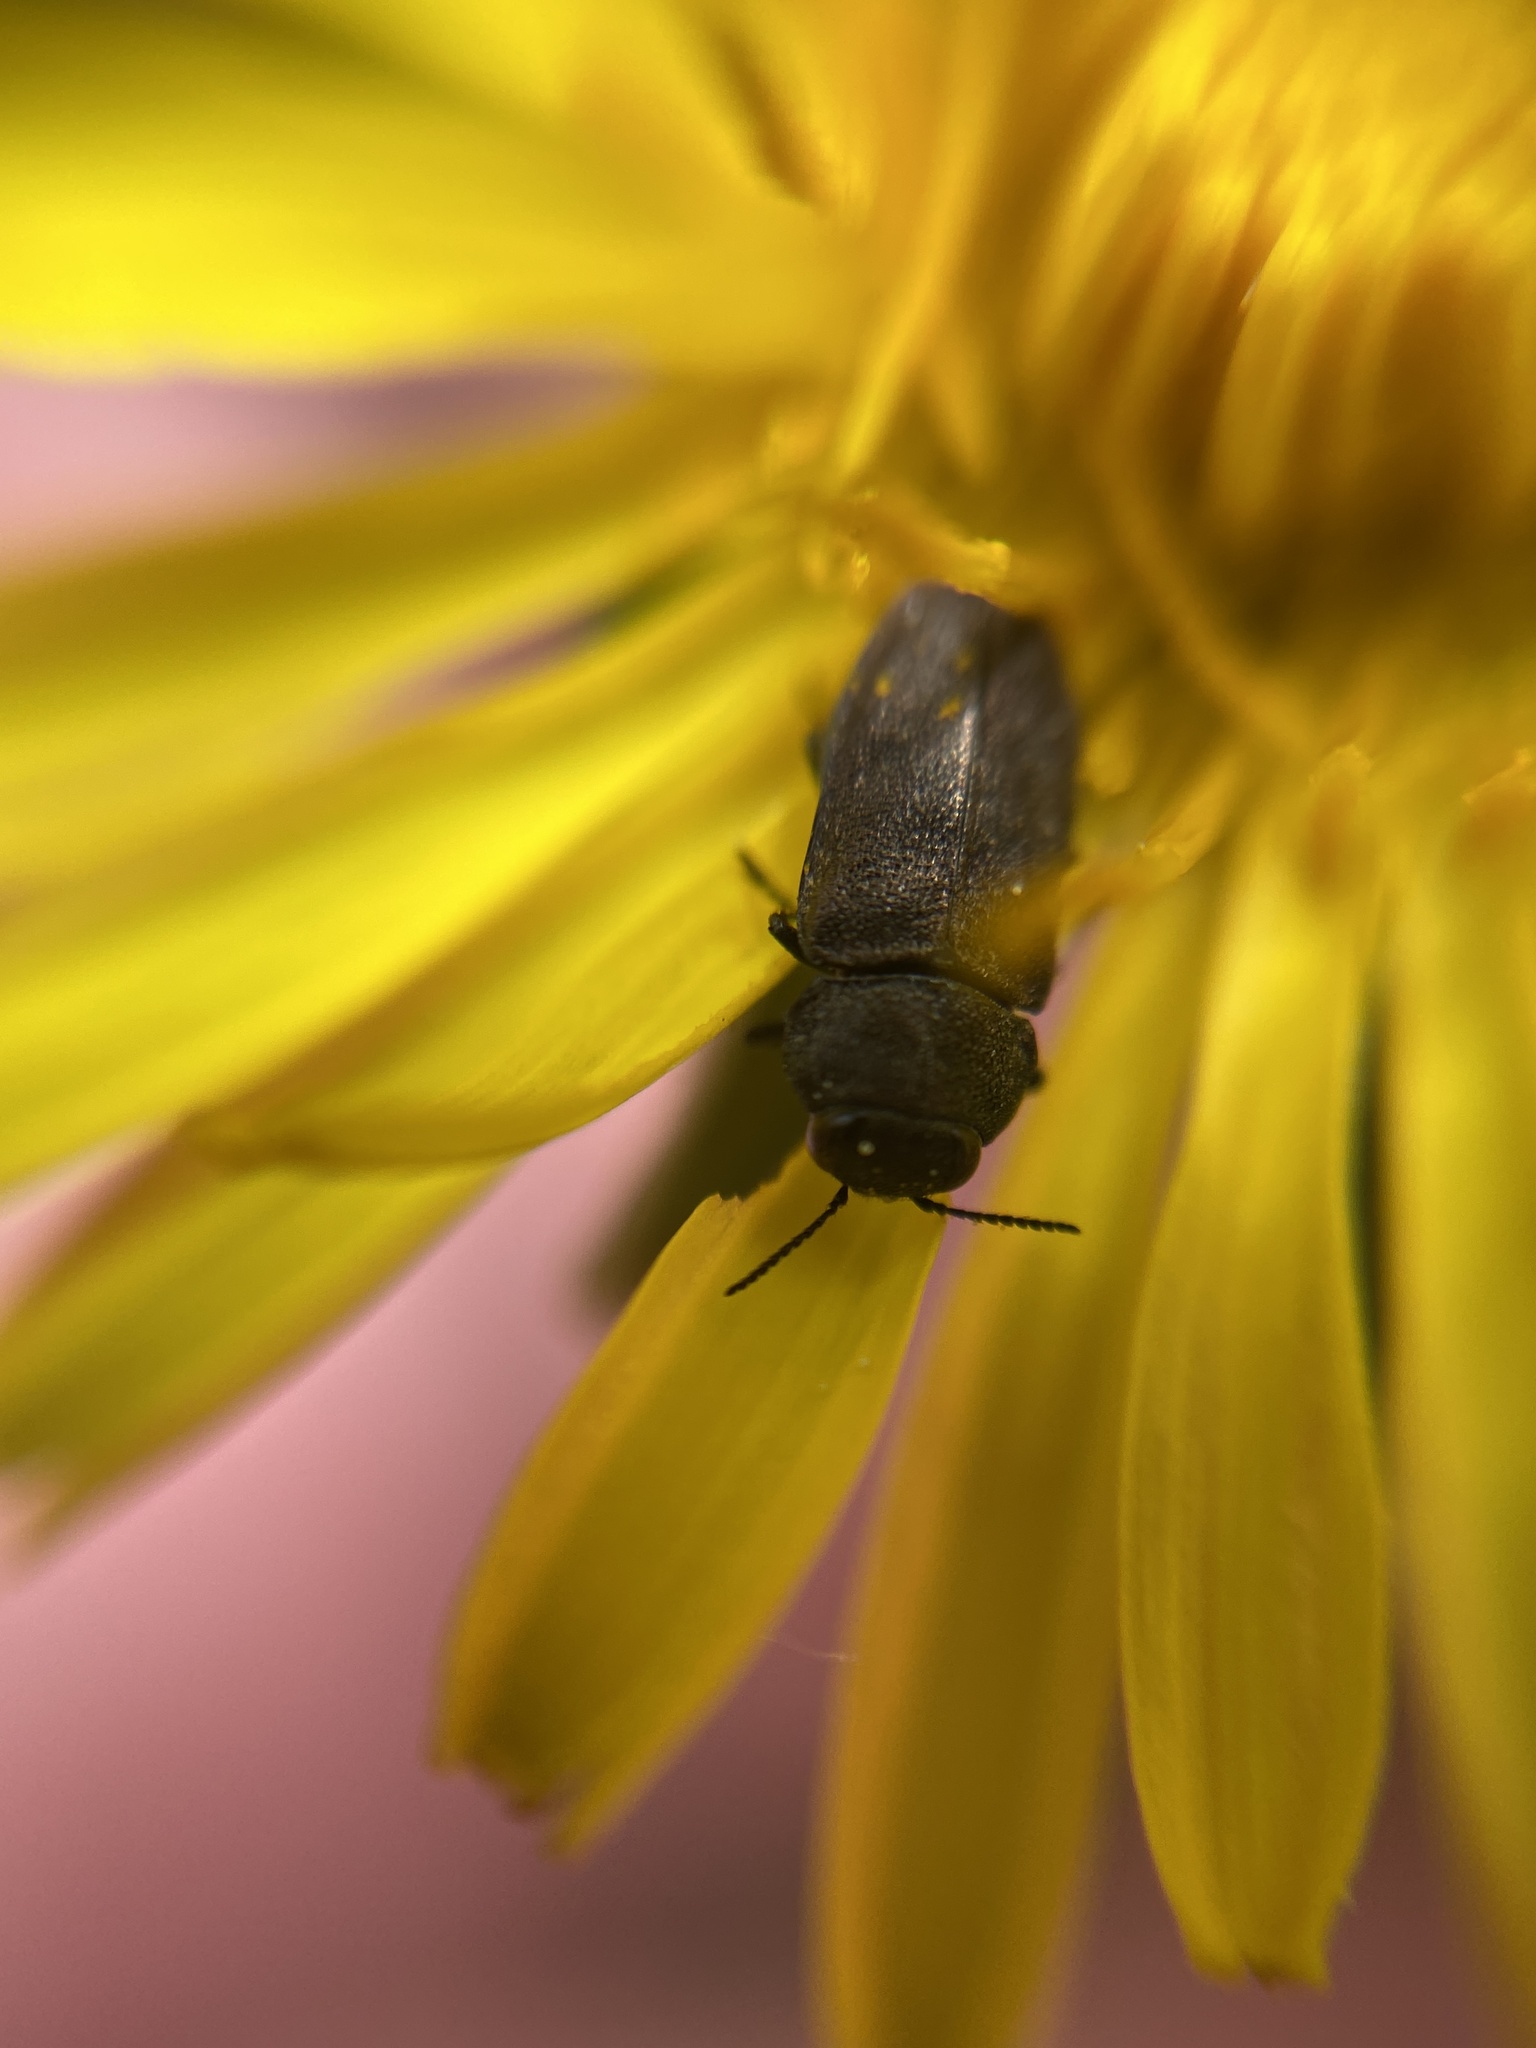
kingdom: Animalia
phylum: Arthropoda
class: Insecta
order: Coleoptera
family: Buprestidae
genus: Anthaxia
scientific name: Anthaxia helvetica
